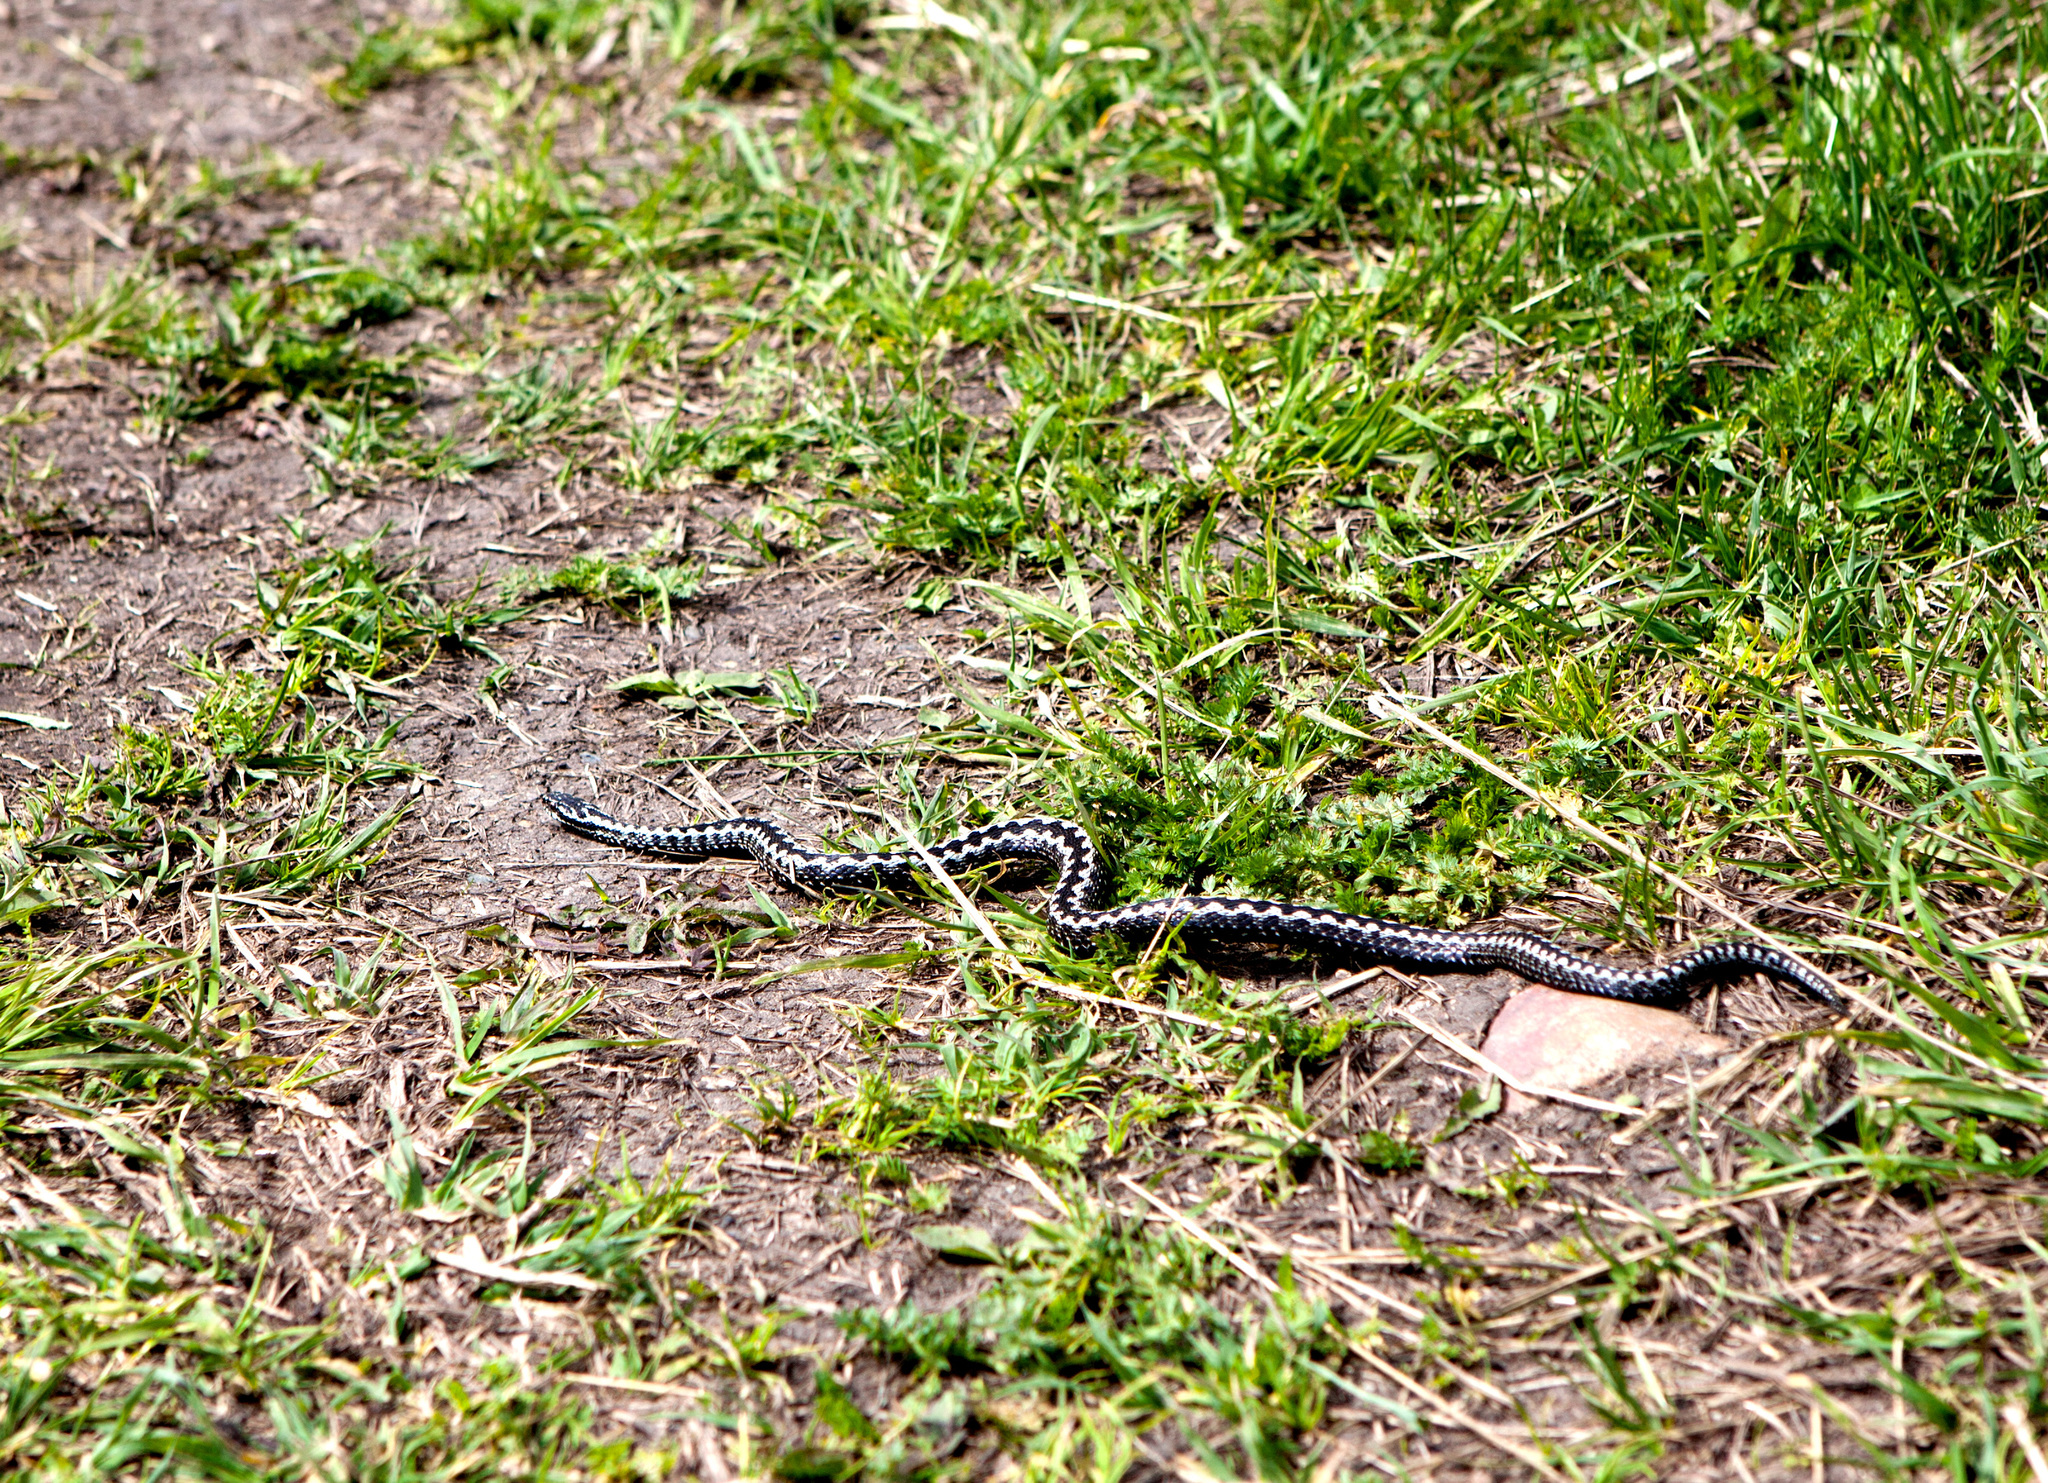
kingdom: Animalia
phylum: Chordata
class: Squamata
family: Viperidae
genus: Vipera
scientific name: Vipera berus
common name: Adder
